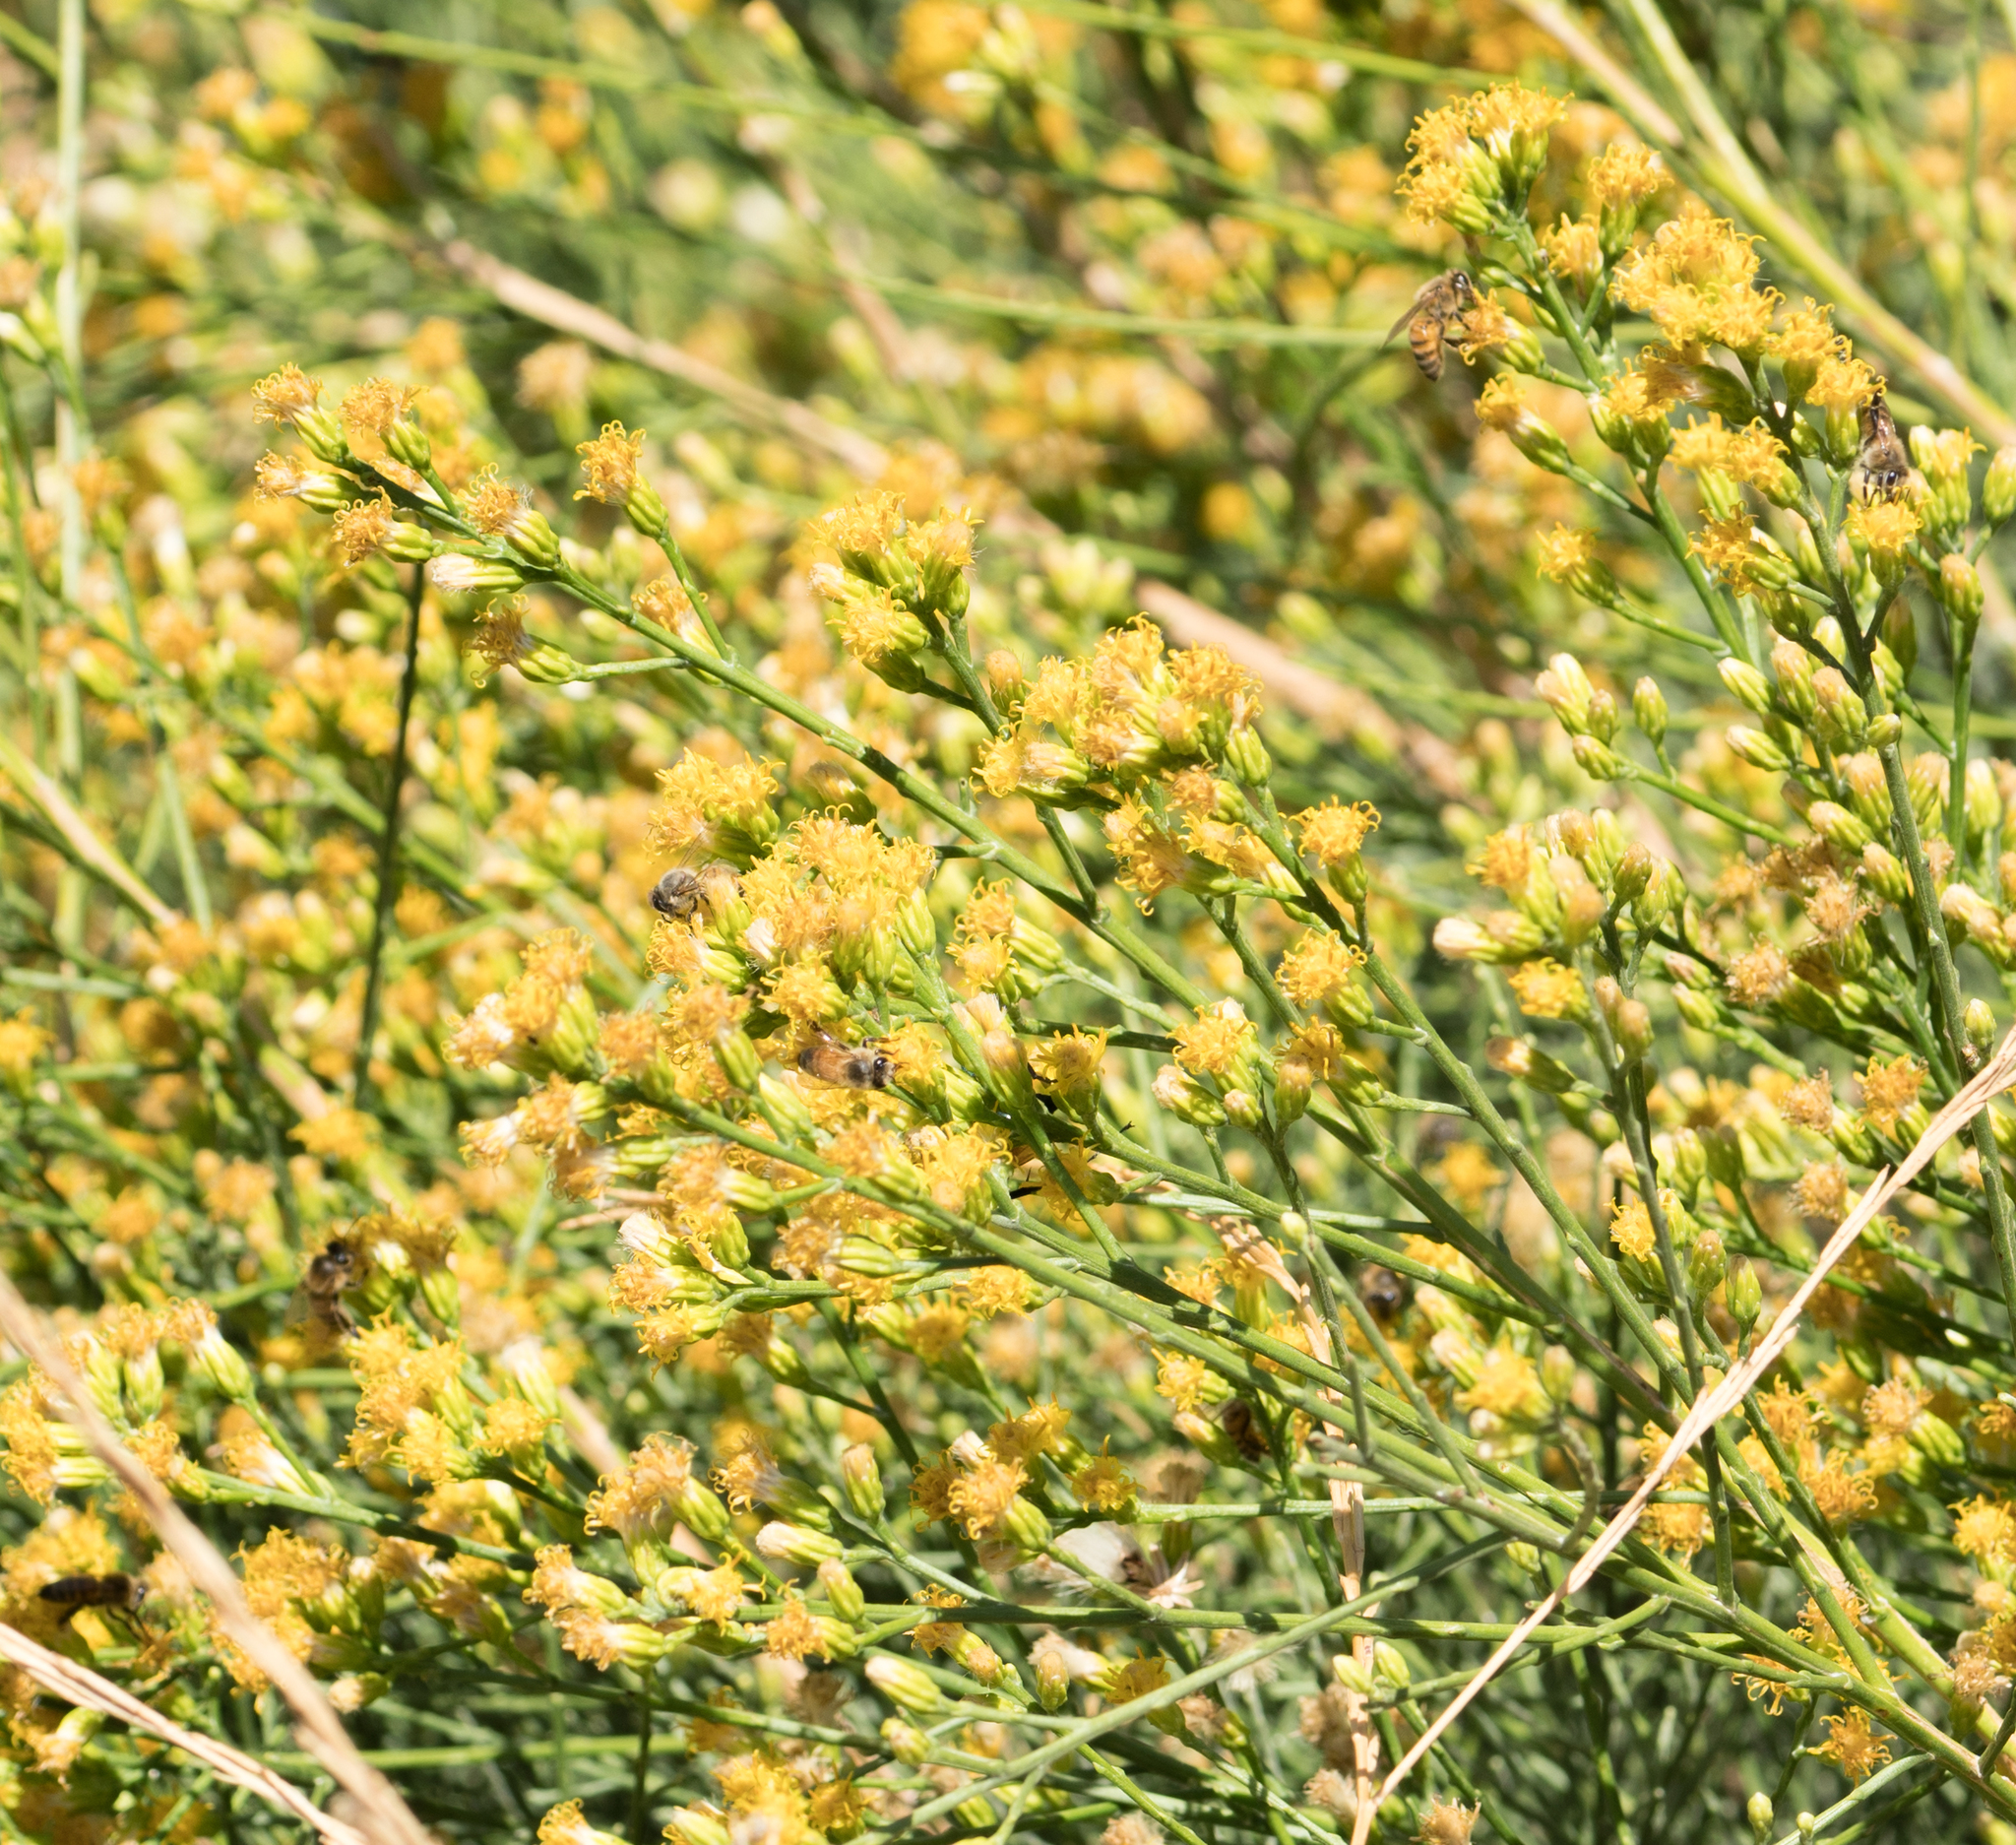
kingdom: Plantae
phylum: Tracheophyta
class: Magnoliopsida
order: Asterales
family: Asteraceae
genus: Lepidospartum
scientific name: Lepidospartum squamatum
